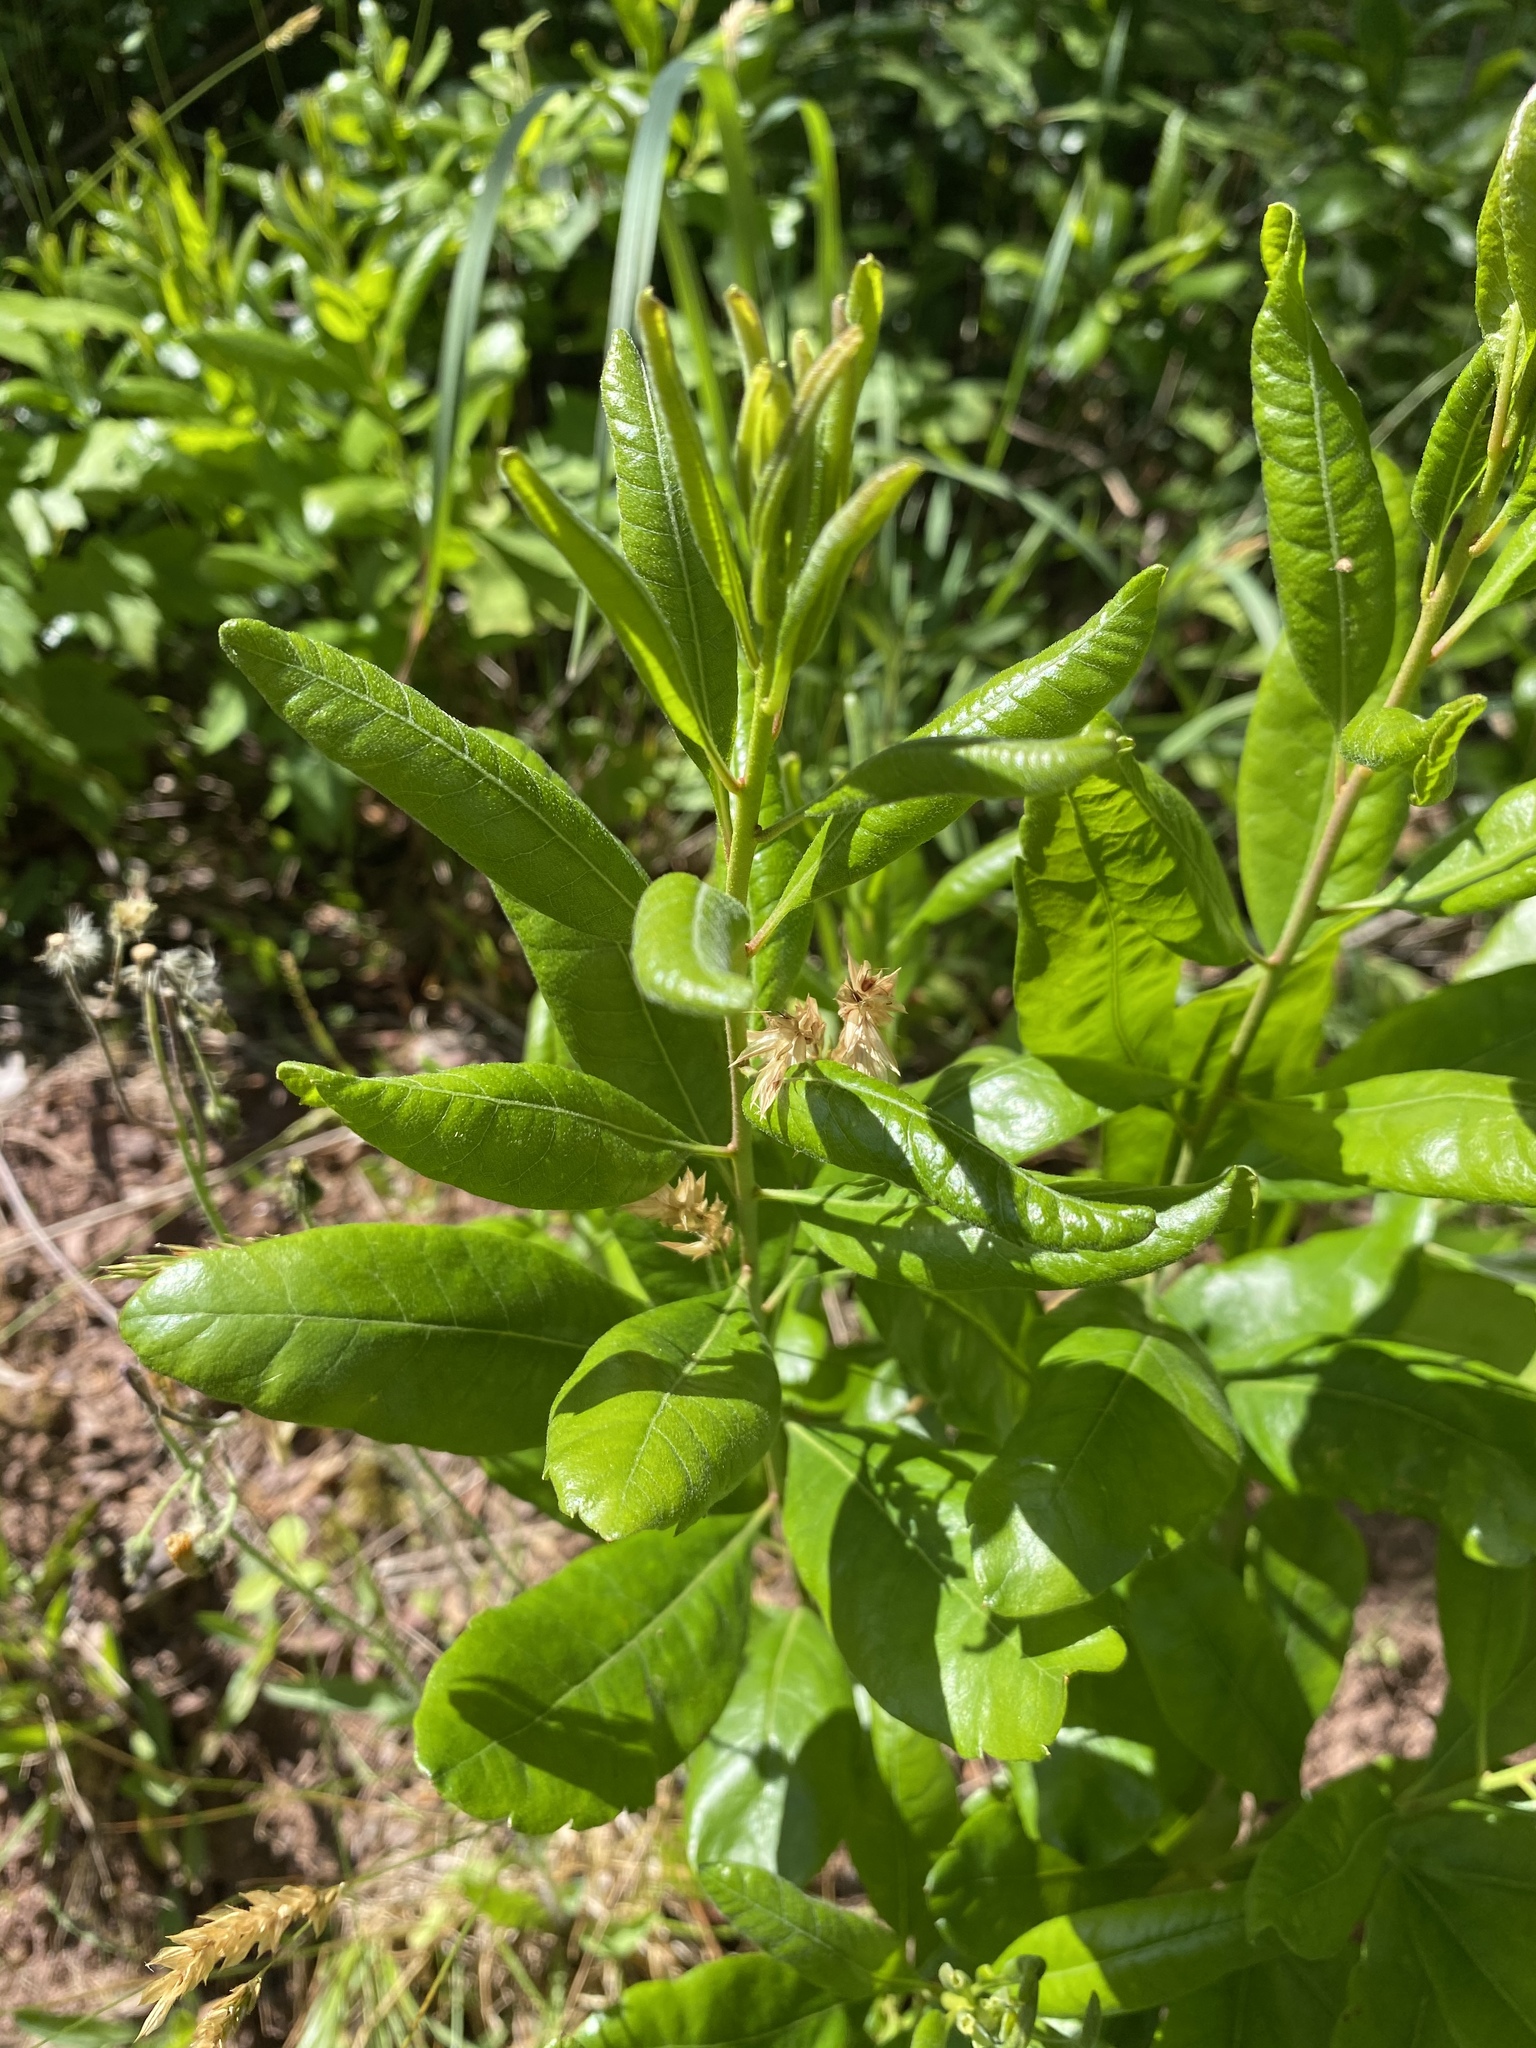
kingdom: Plantae
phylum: Tracheophyta
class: Magnoliopsida
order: Fagales
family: Myricaceae
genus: Morella
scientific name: Morella pensylvanica
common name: Northern bayberry
